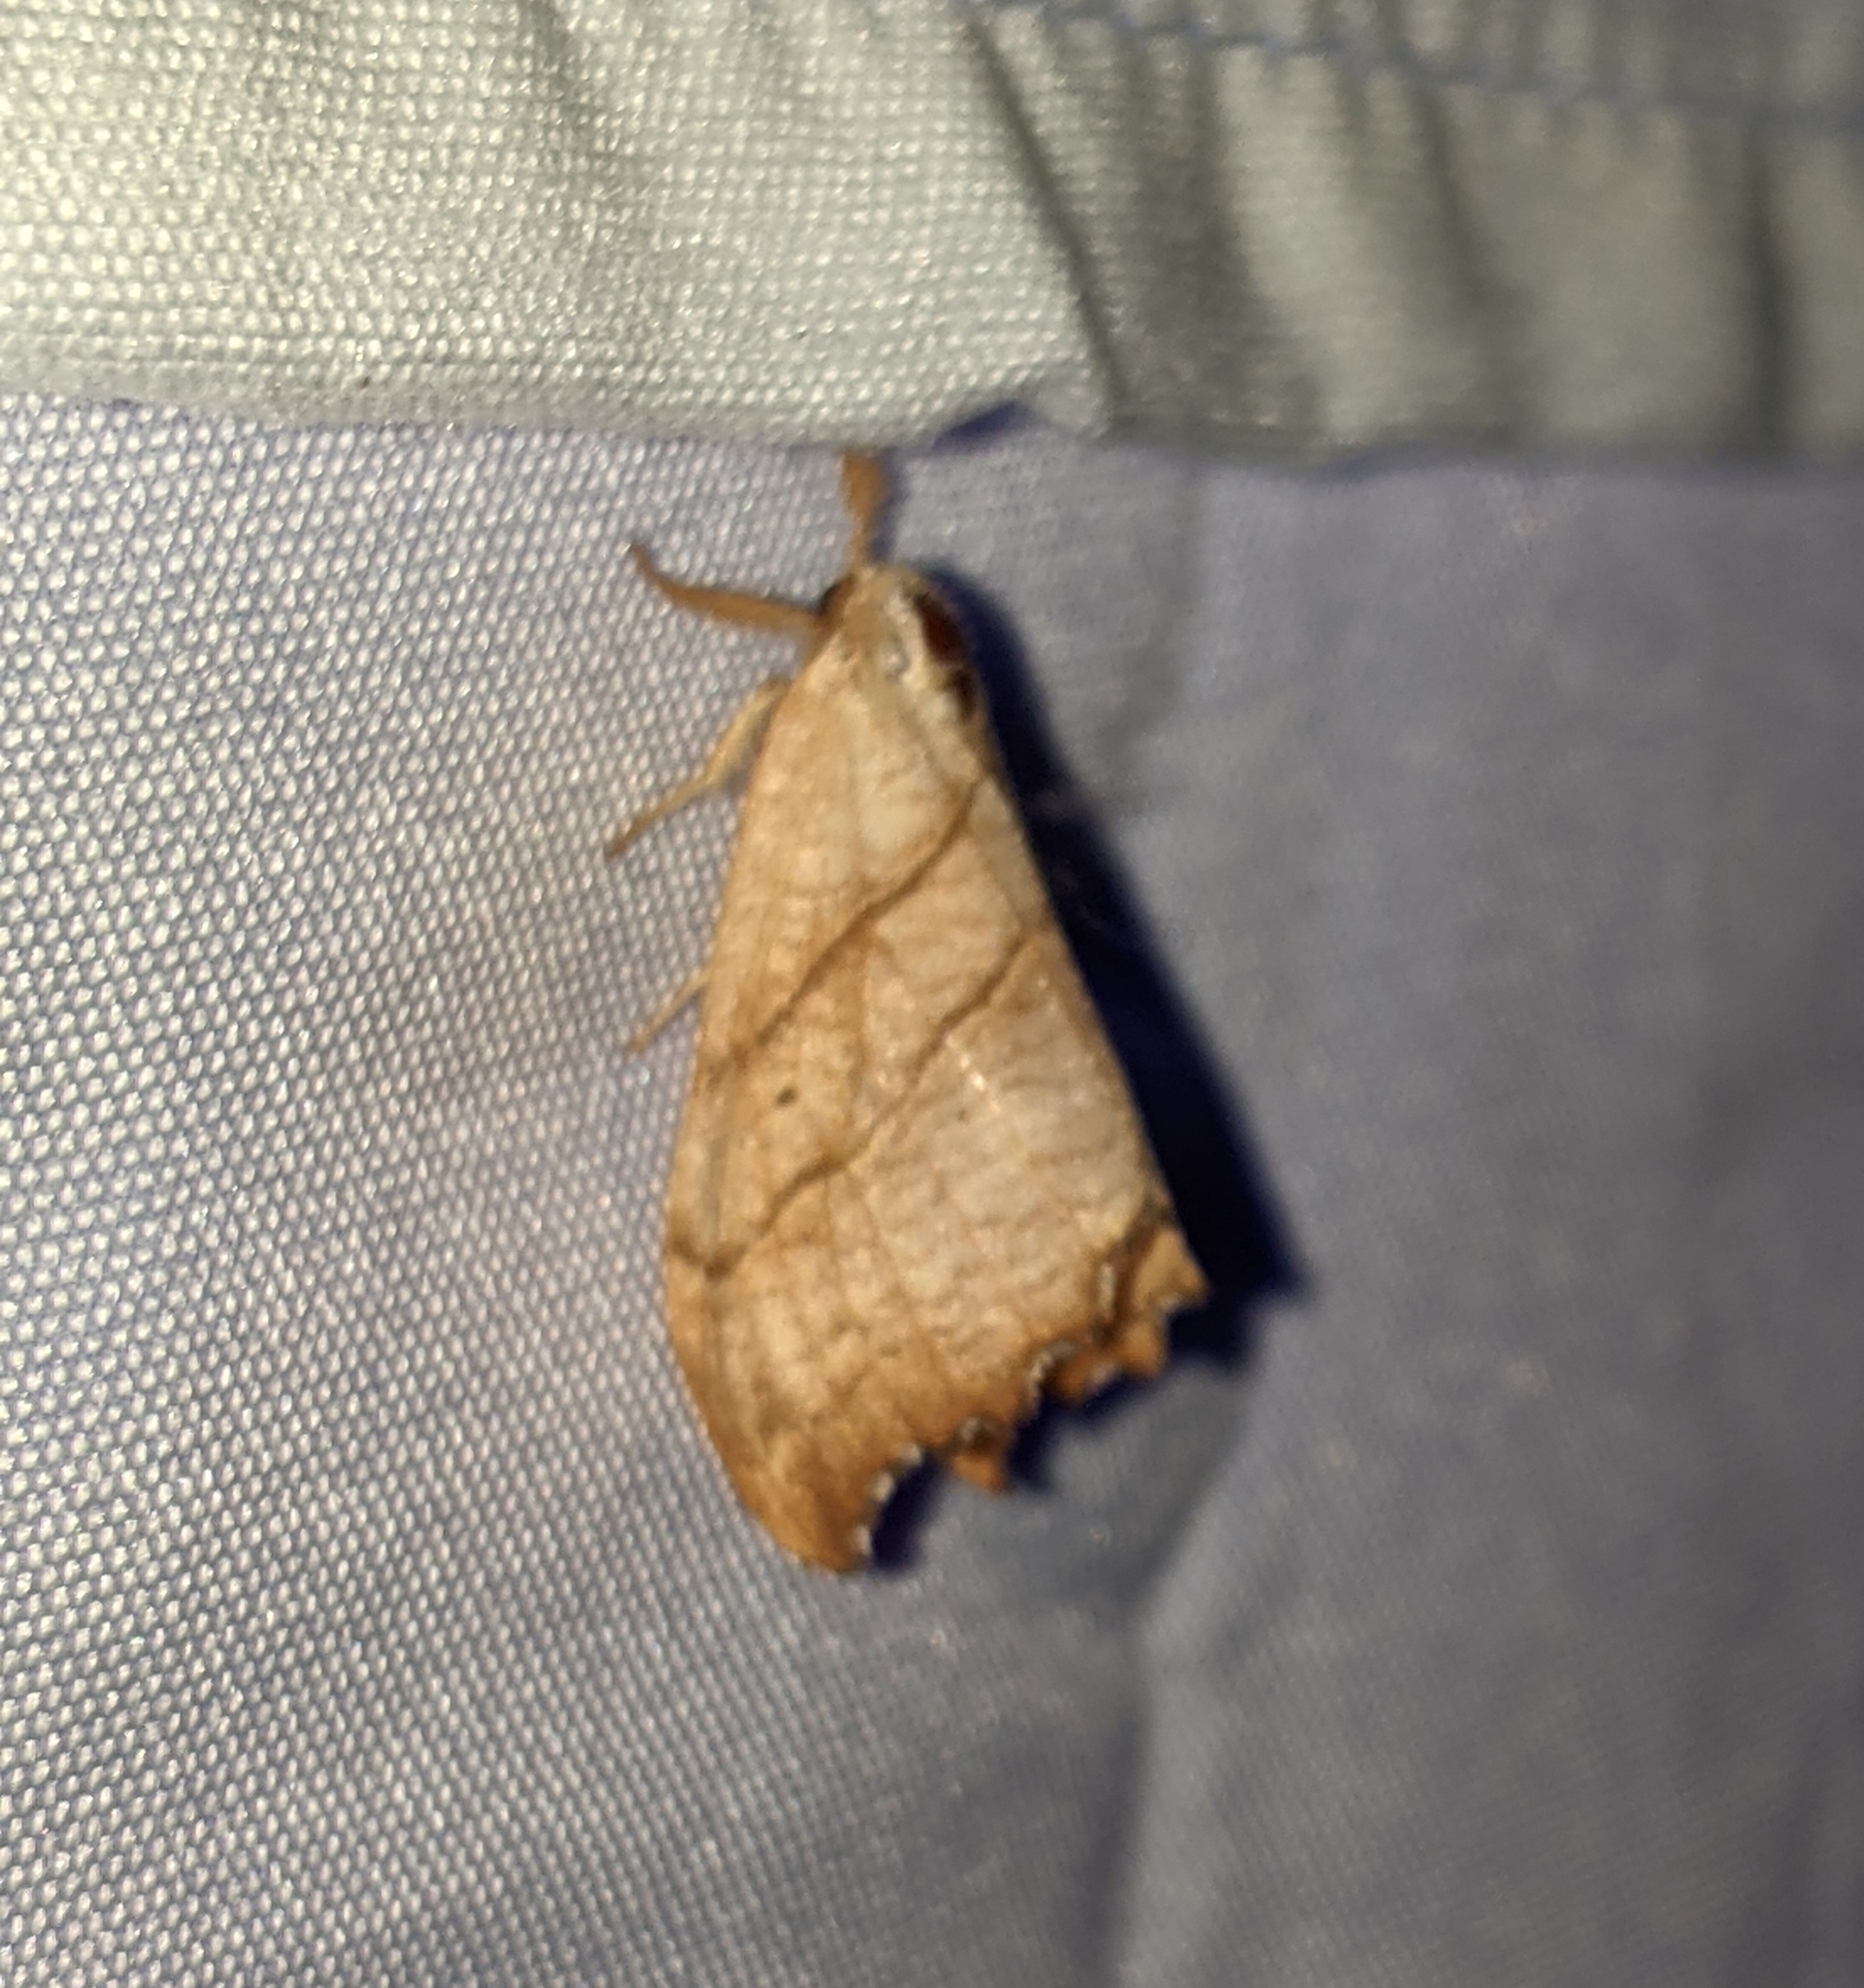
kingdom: Animalia
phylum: Arthropoda
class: Insecta
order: Lepidoptera
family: Drepanidae
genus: Falcaria
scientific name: Falcaria bilineata
